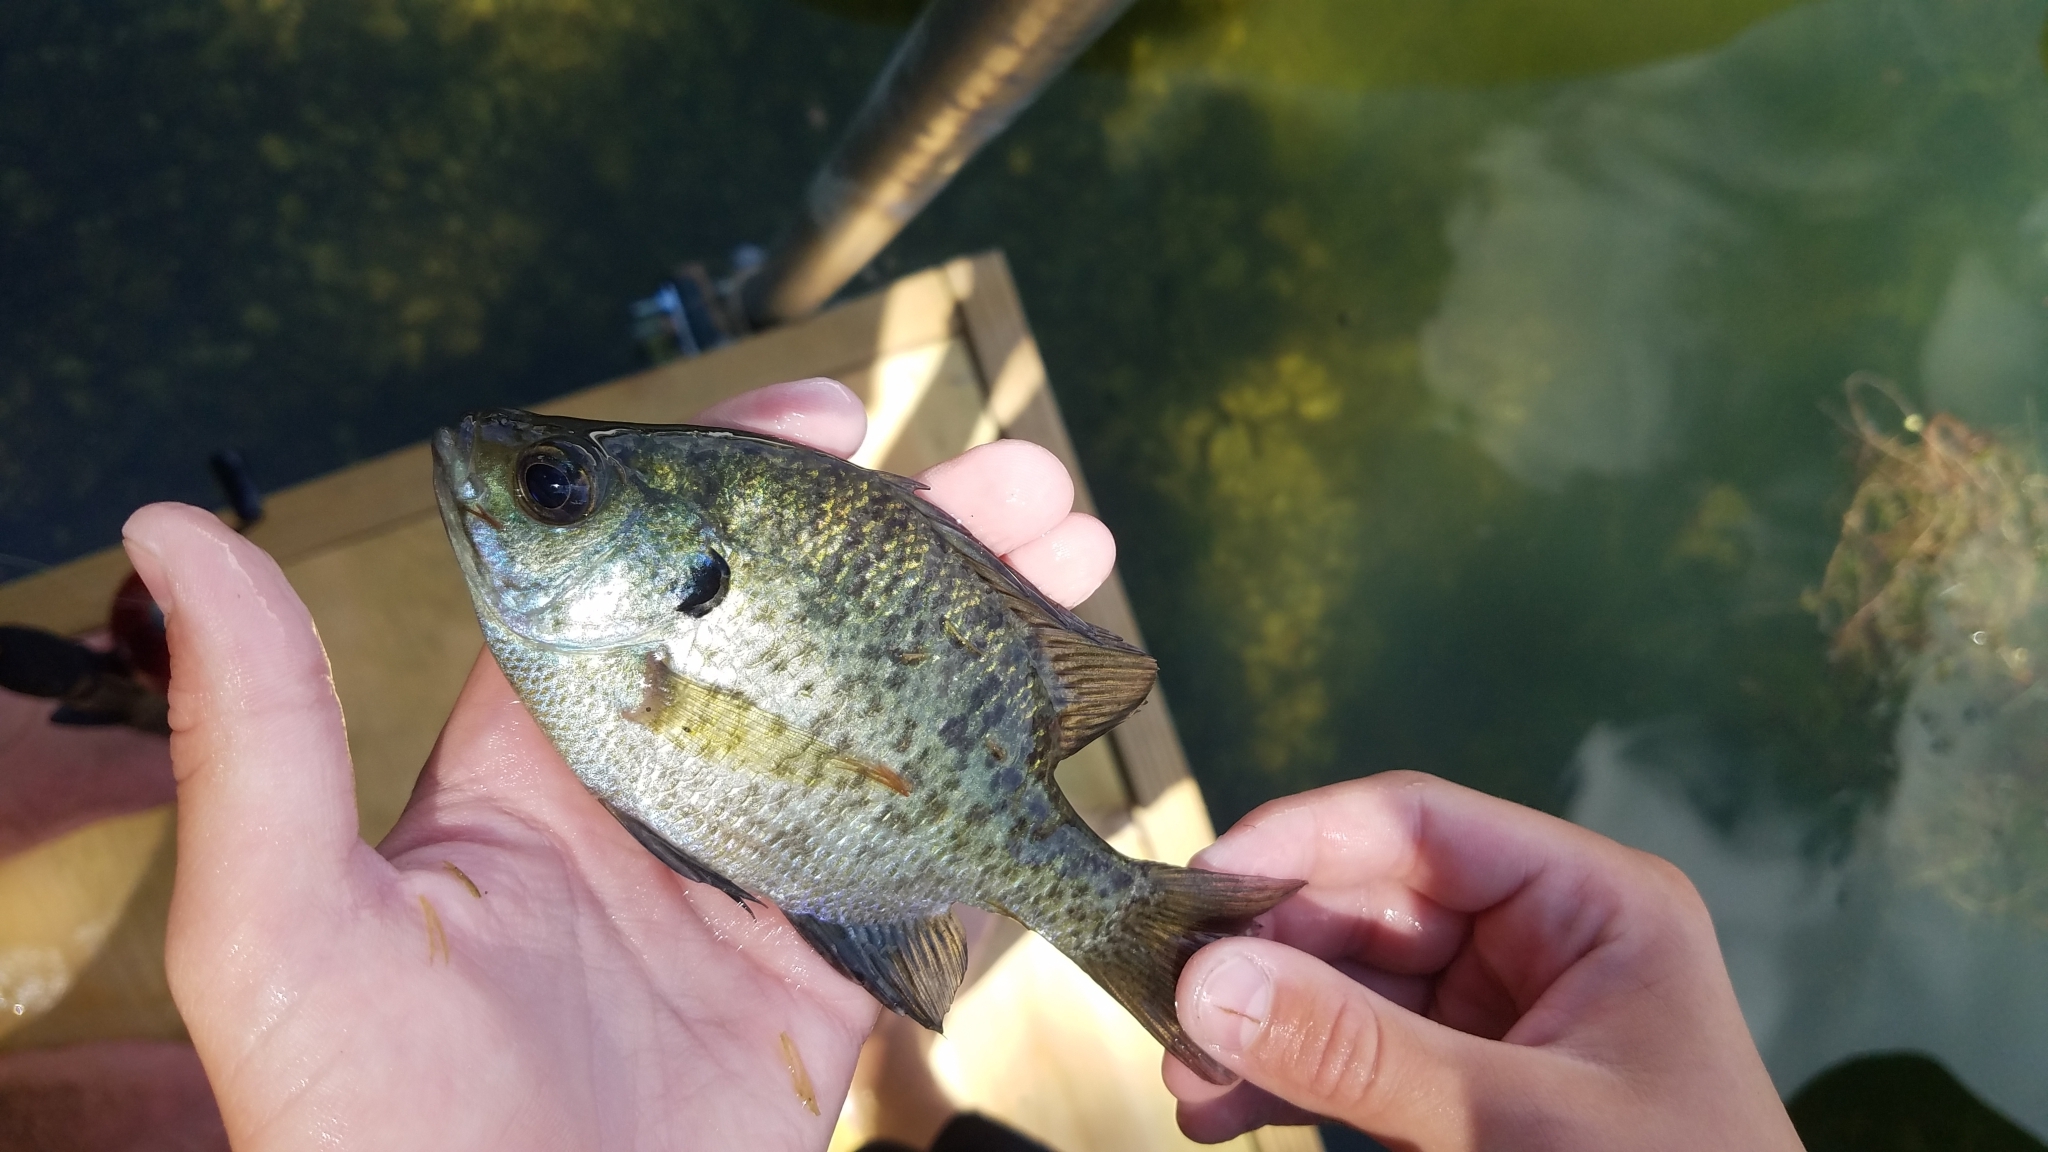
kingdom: Animalia
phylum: Chordata
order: Perciformes
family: Centrarchidae
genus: Lepomis
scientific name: Lepomis macrochirus
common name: Bluegill
